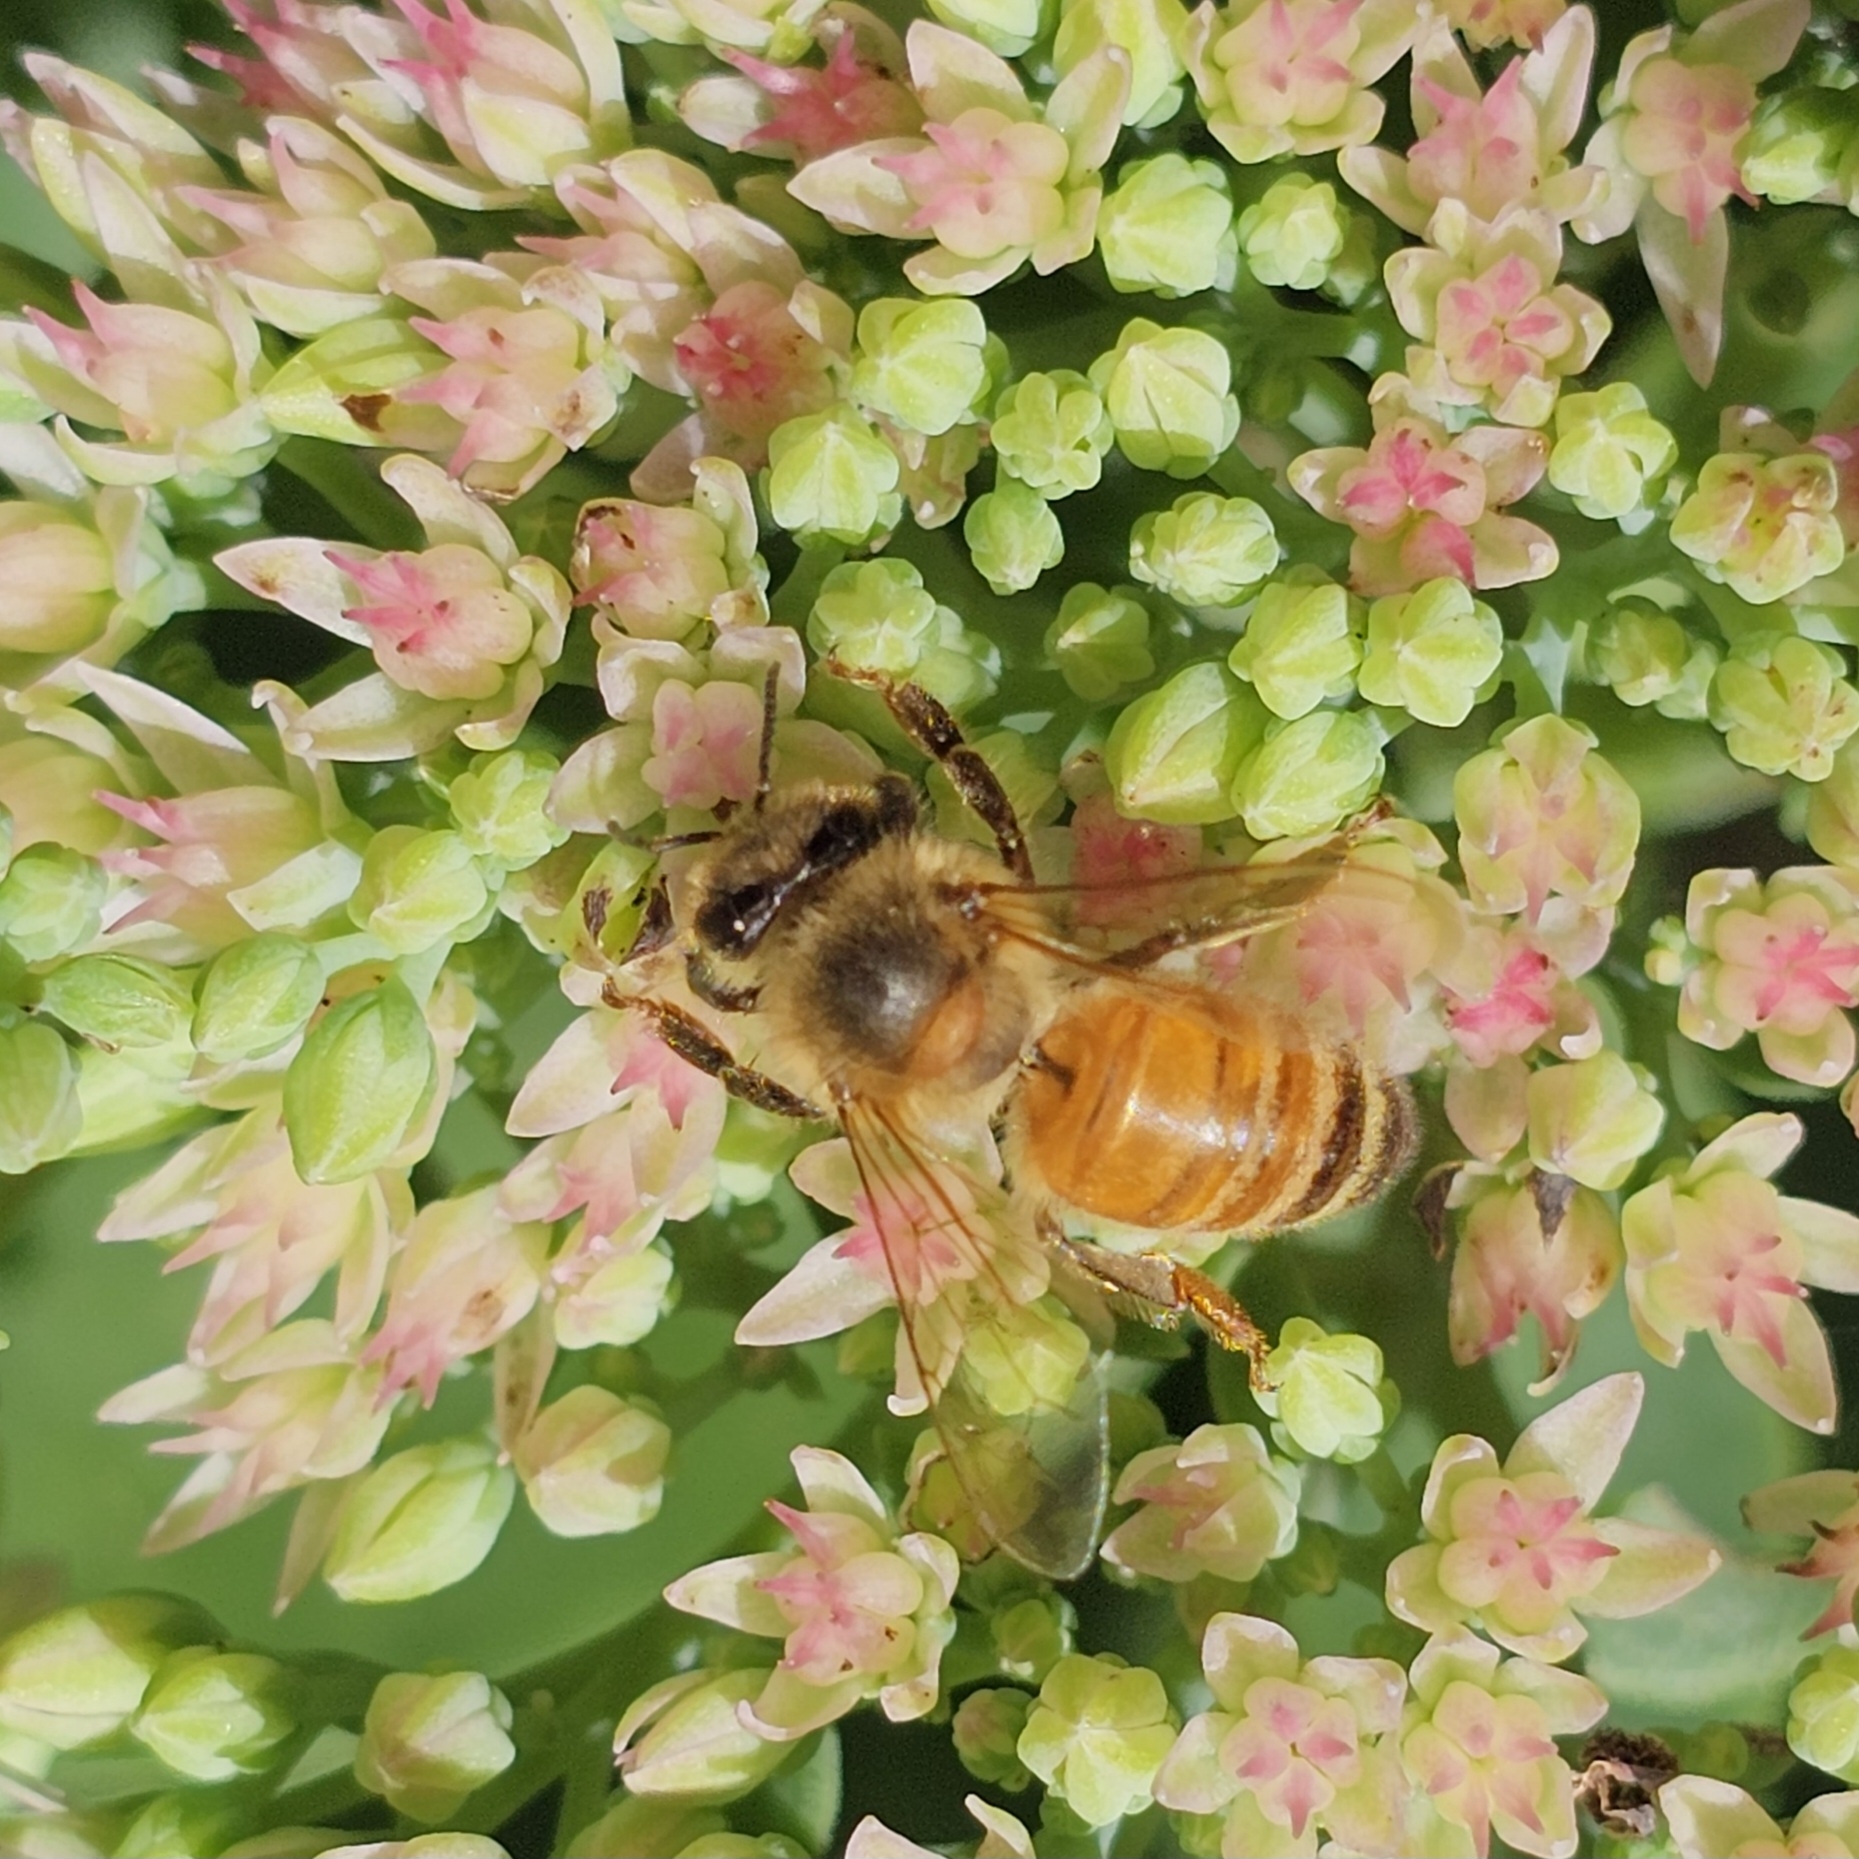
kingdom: Animalia
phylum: Arthropoda
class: Insecta
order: Hymenoptera
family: Apidae
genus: Apis
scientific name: Apis mellifera
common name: Honey bee
